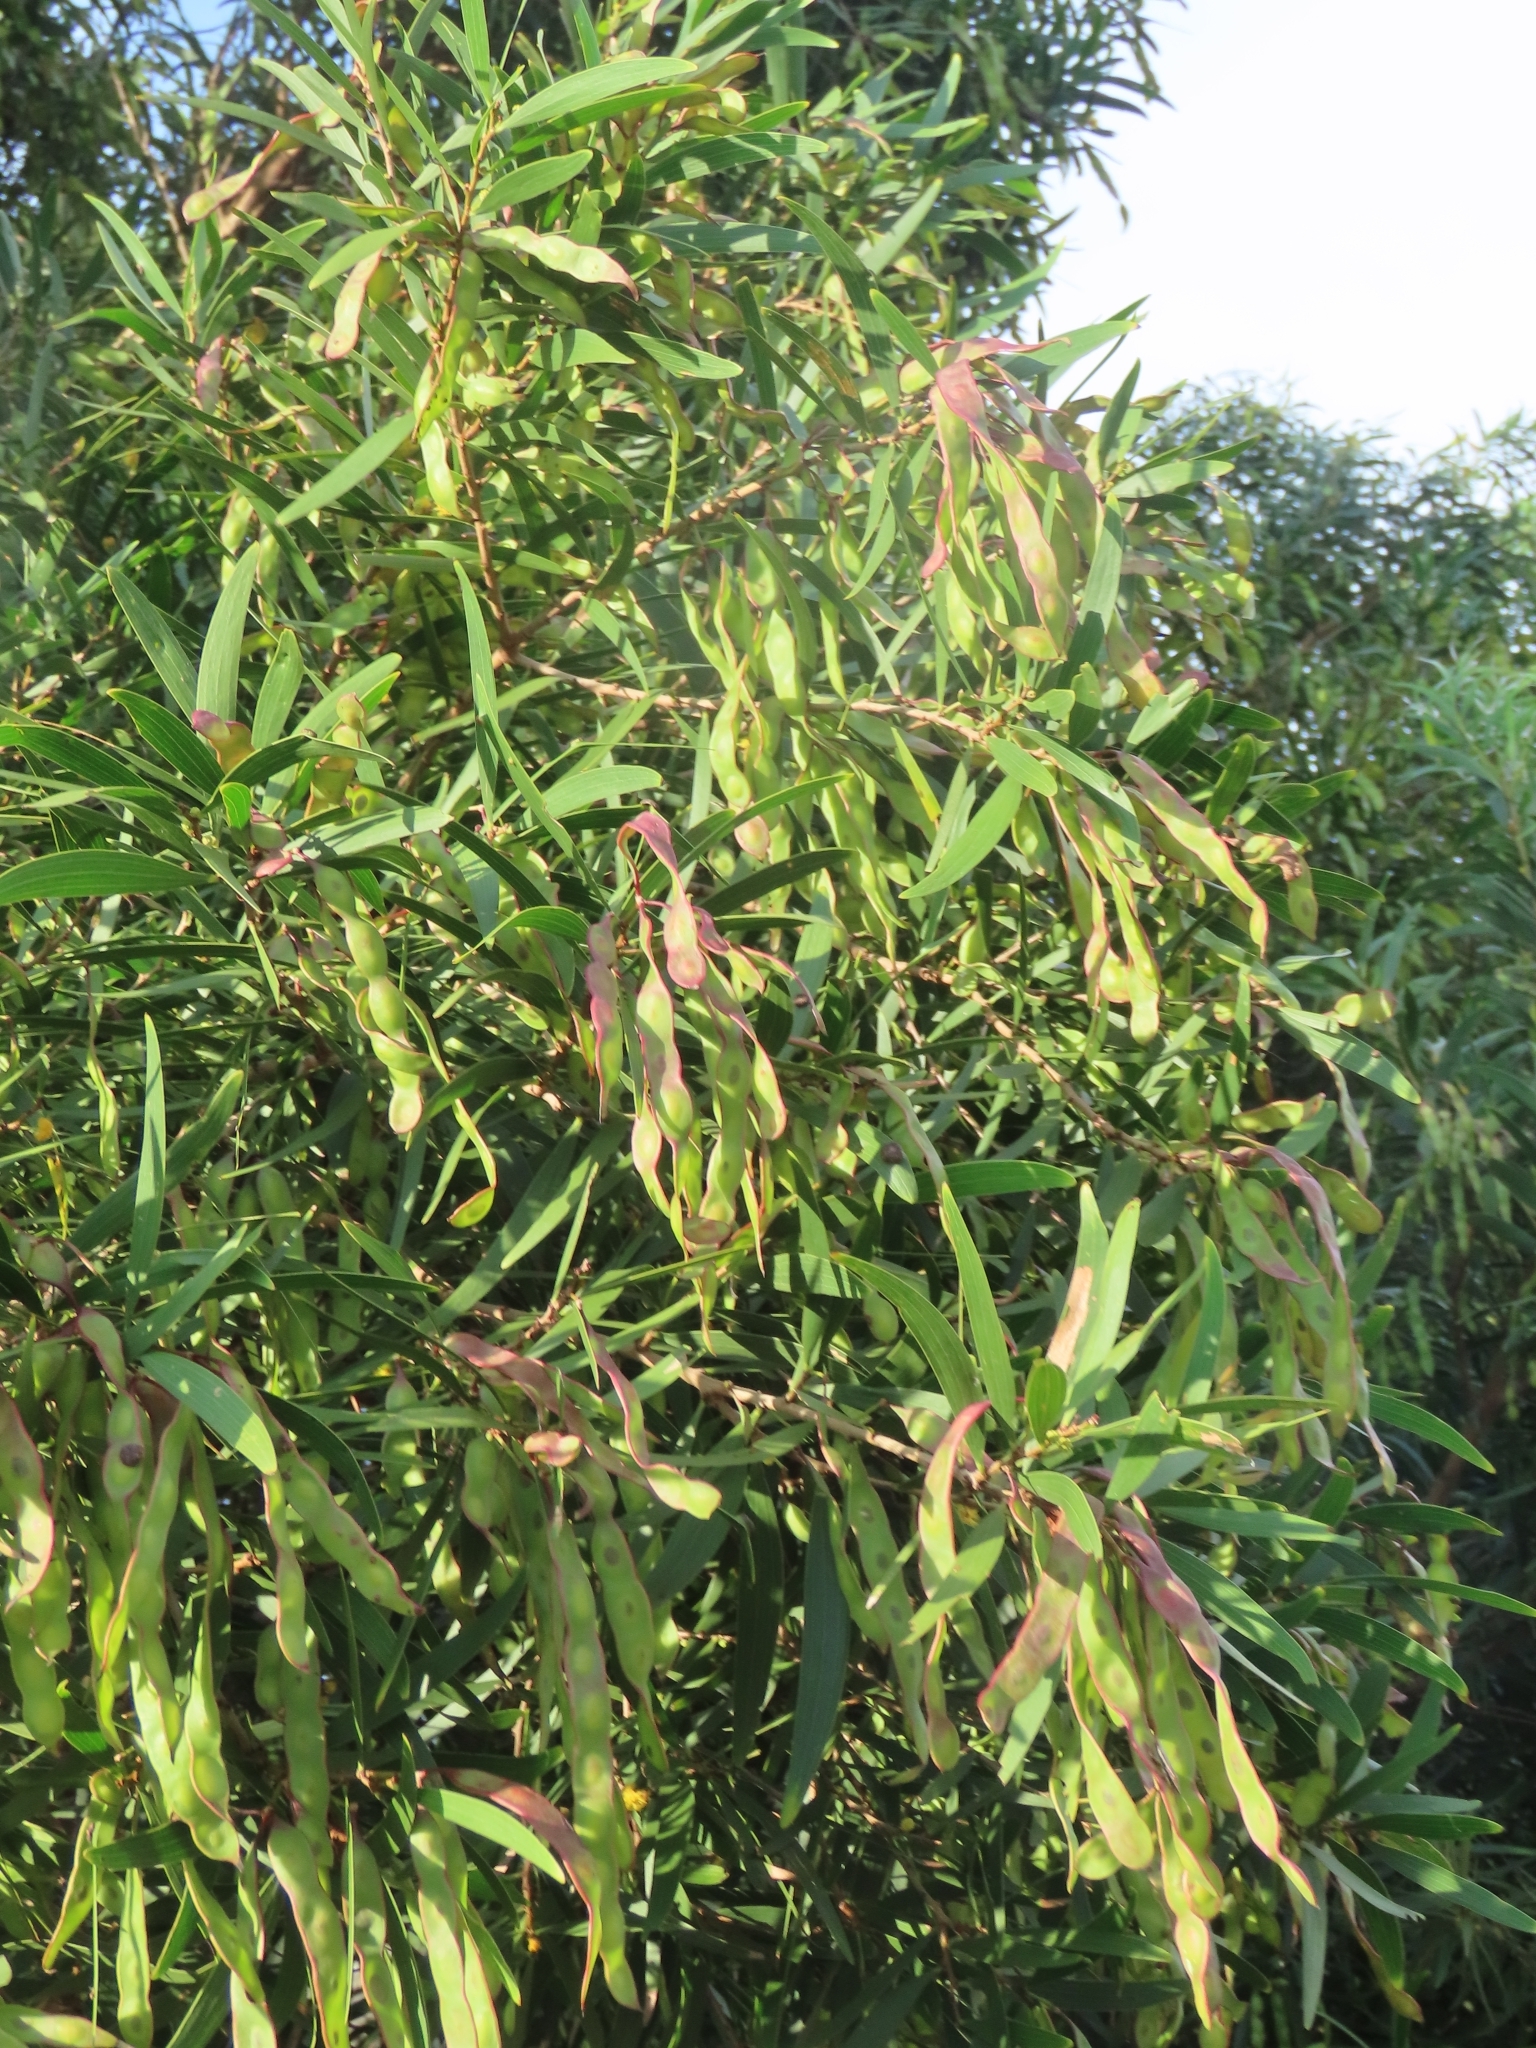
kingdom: Plantae
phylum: Tracheophyta
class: Magnoliopsida
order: Fabales
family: Fabaceae
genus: Acacia
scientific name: Acacia confusa
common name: Formosan koa
